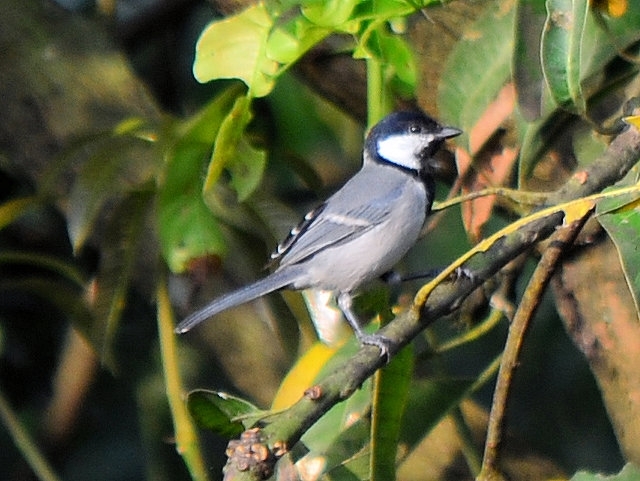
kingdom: Animalia
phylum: Chordata
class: Aves
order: Passeriformes
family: Paridae
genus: Parus
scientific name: Parus cinereus
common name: Cinereous tit
